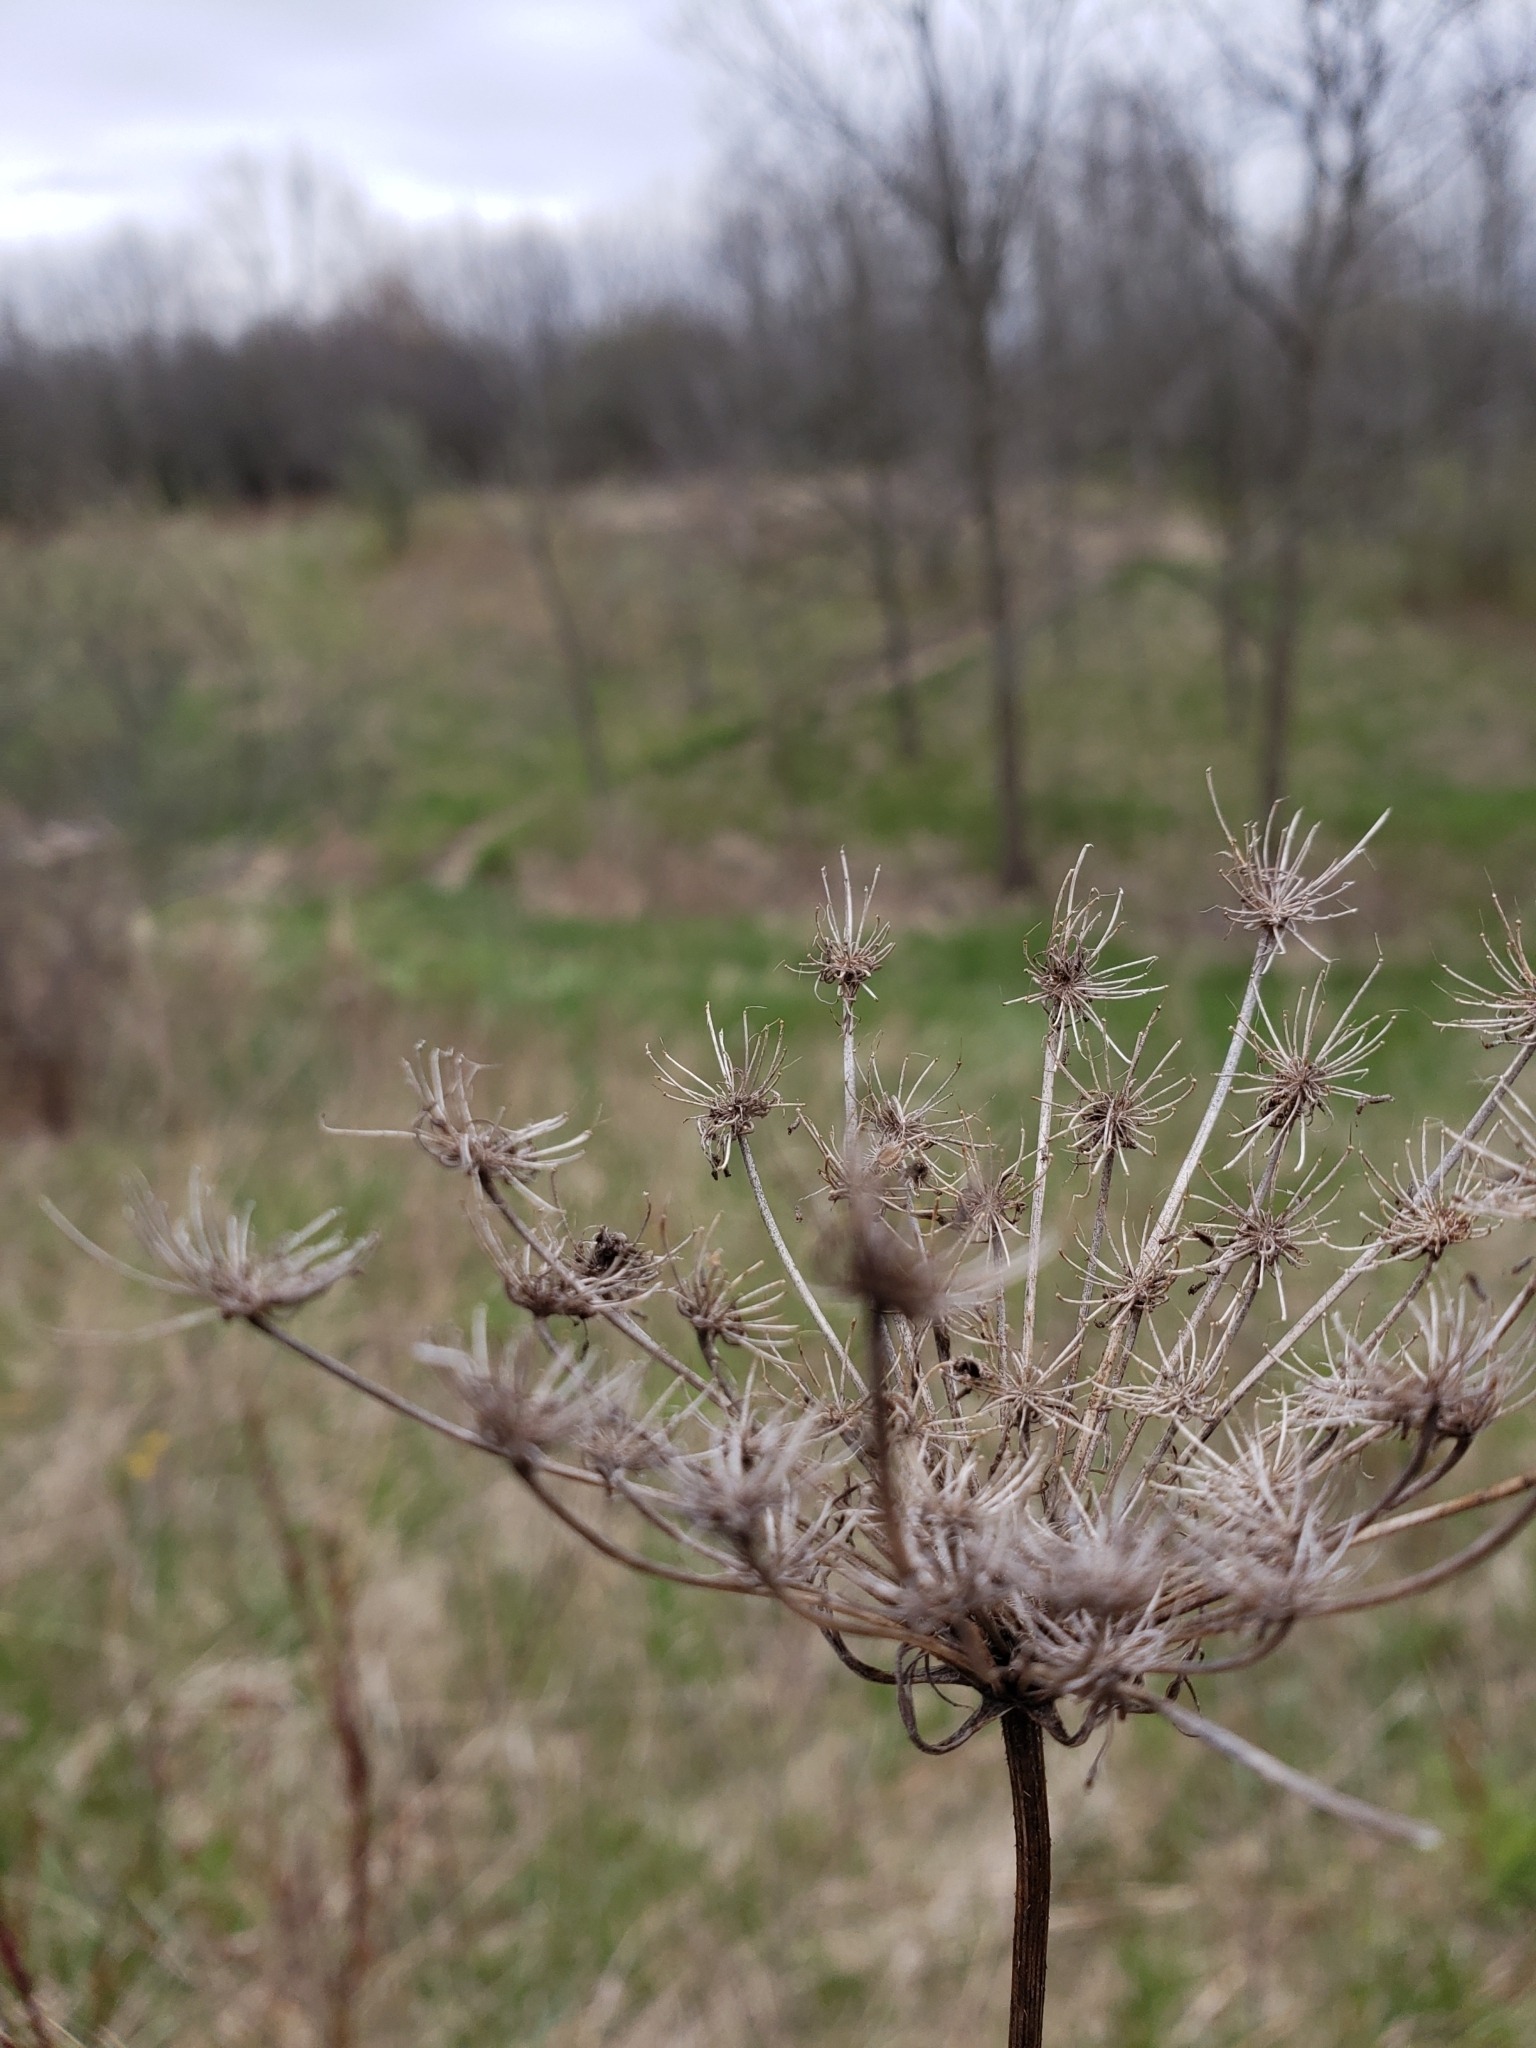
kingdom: Plantae
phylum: Tracheophyta
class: Magnoliopsida
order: Apiales
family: Apiaceae
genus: Daucus
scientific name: Daucus carota
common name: Wild carrot
